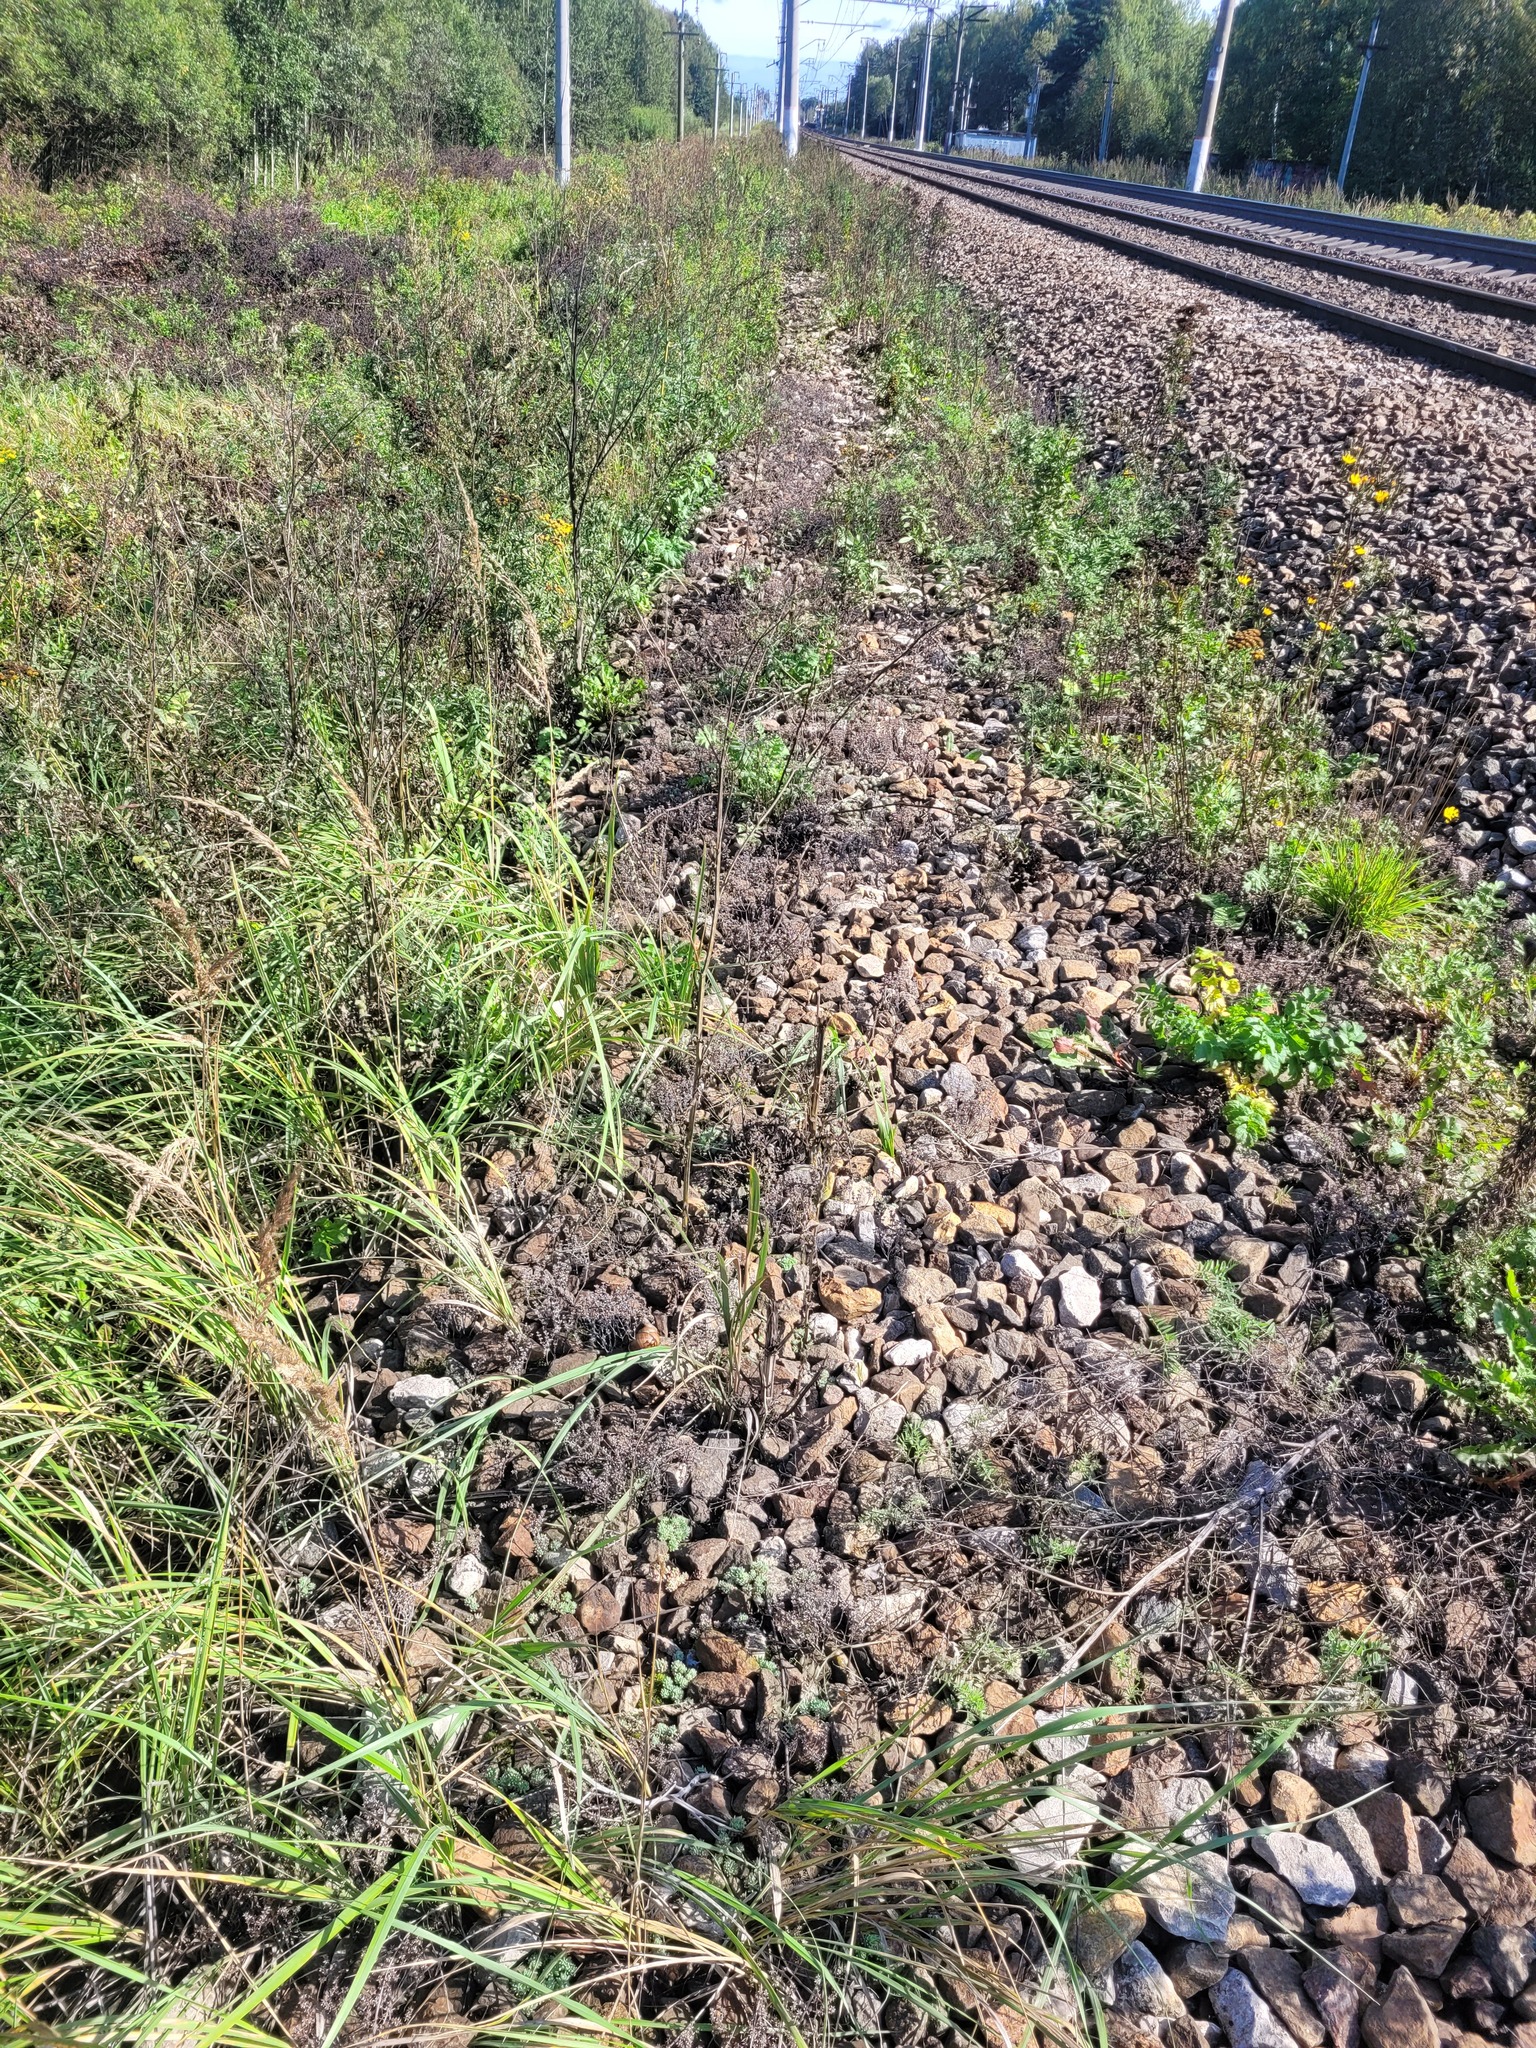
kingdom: Plantae
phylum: Tracheophyta
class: Magnoliopsida
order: Apiales
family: Apiaceae
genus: Pastinaca
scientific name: Pastinaca sativa
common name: Wild parsnip
